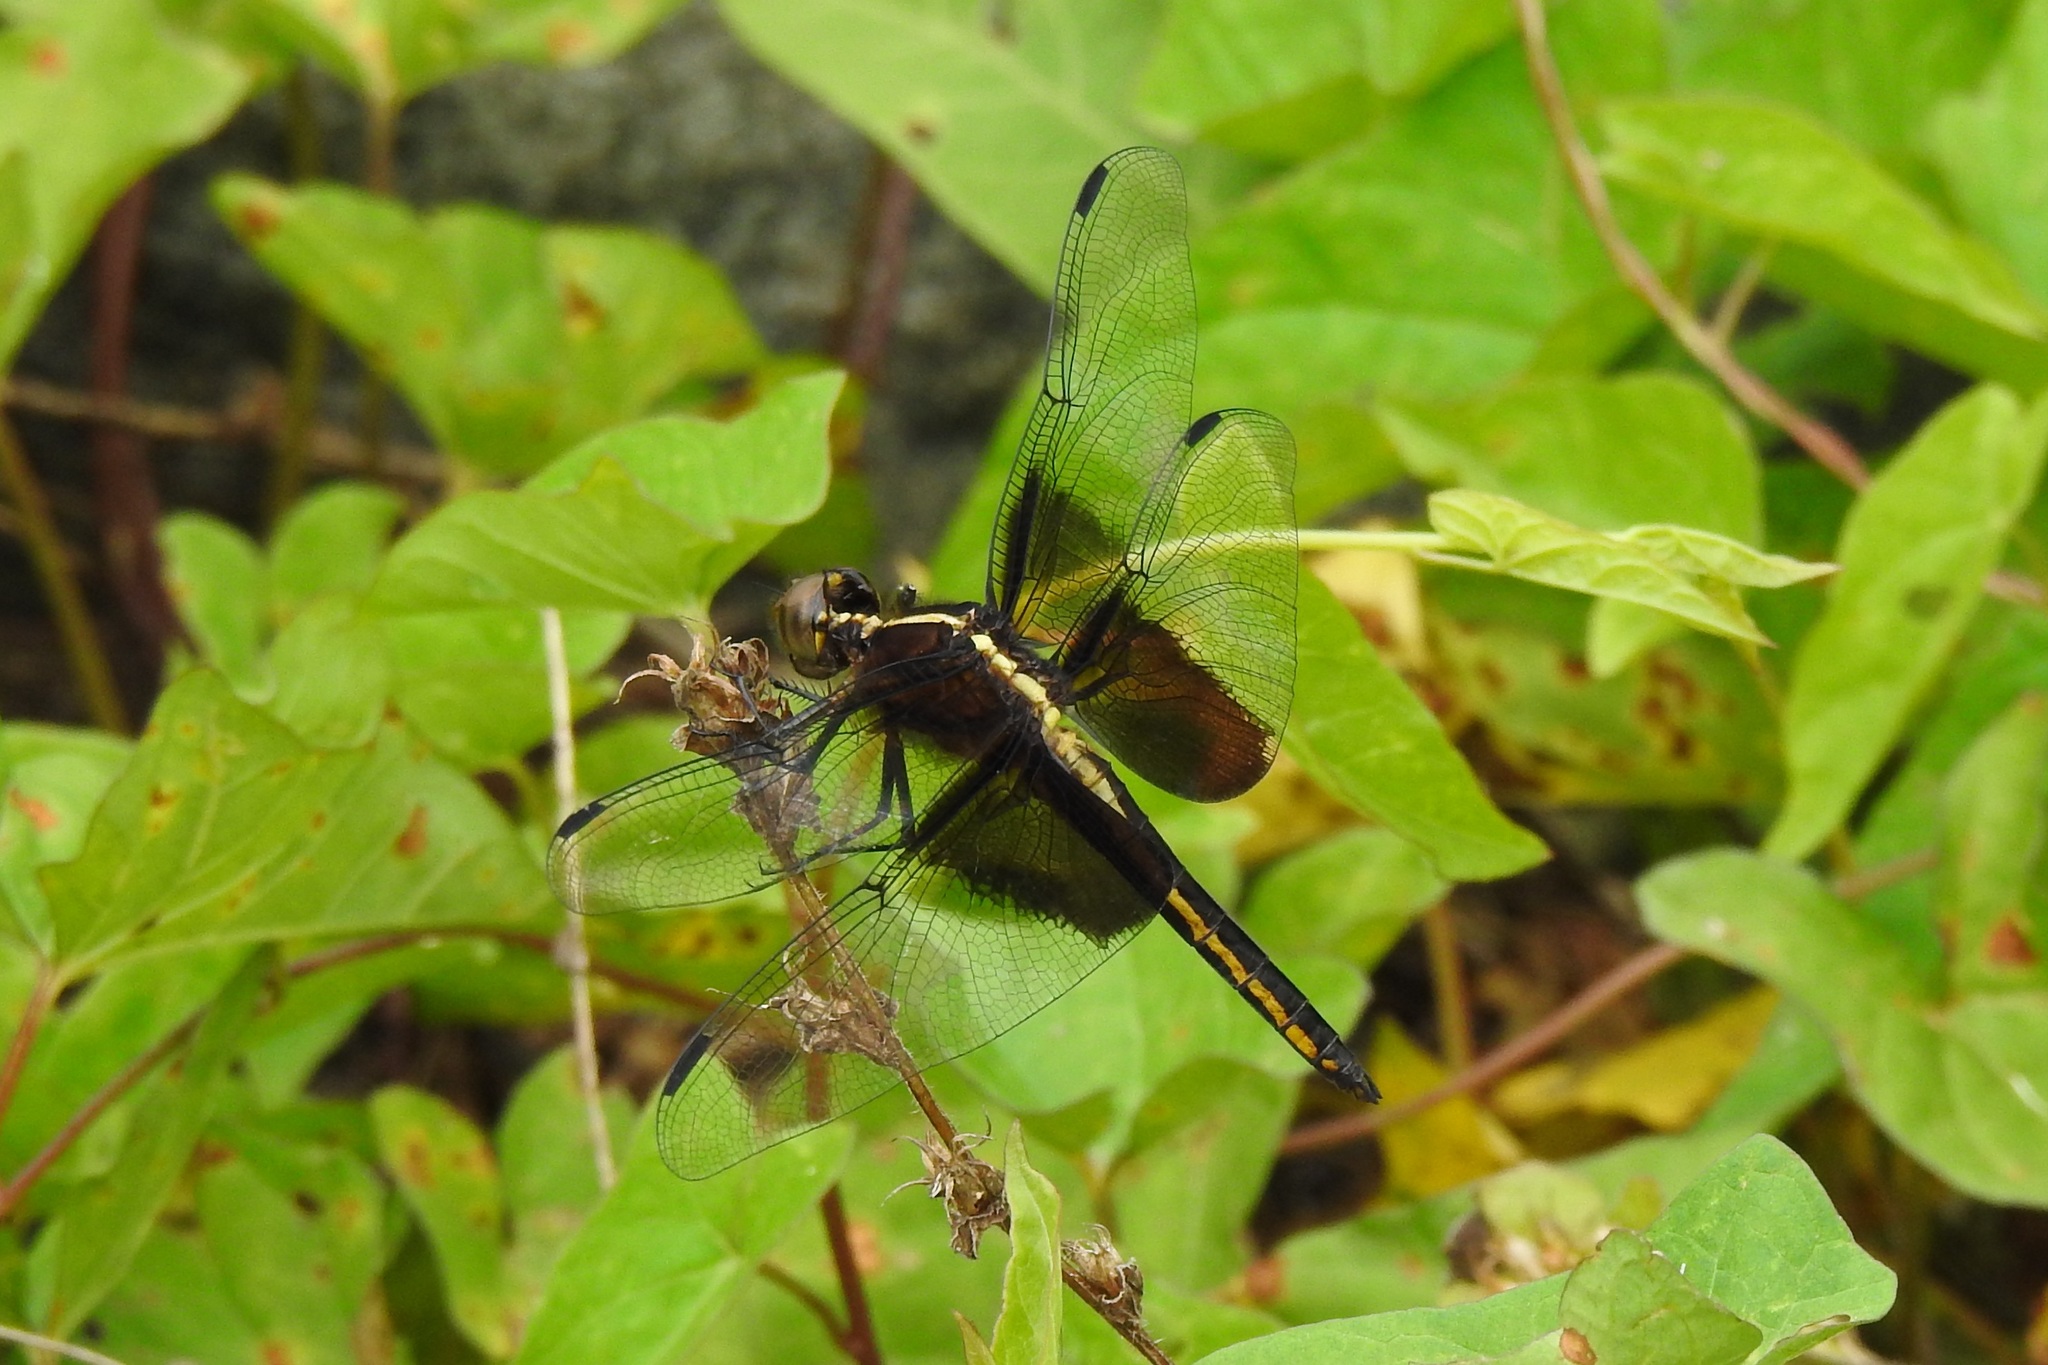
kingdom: Animalia
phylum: Arthropoda
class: Insecta
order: Odonata
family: Libellulidae
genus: Libellula
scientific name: Libellula luctuosa
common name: Widow skimmer
